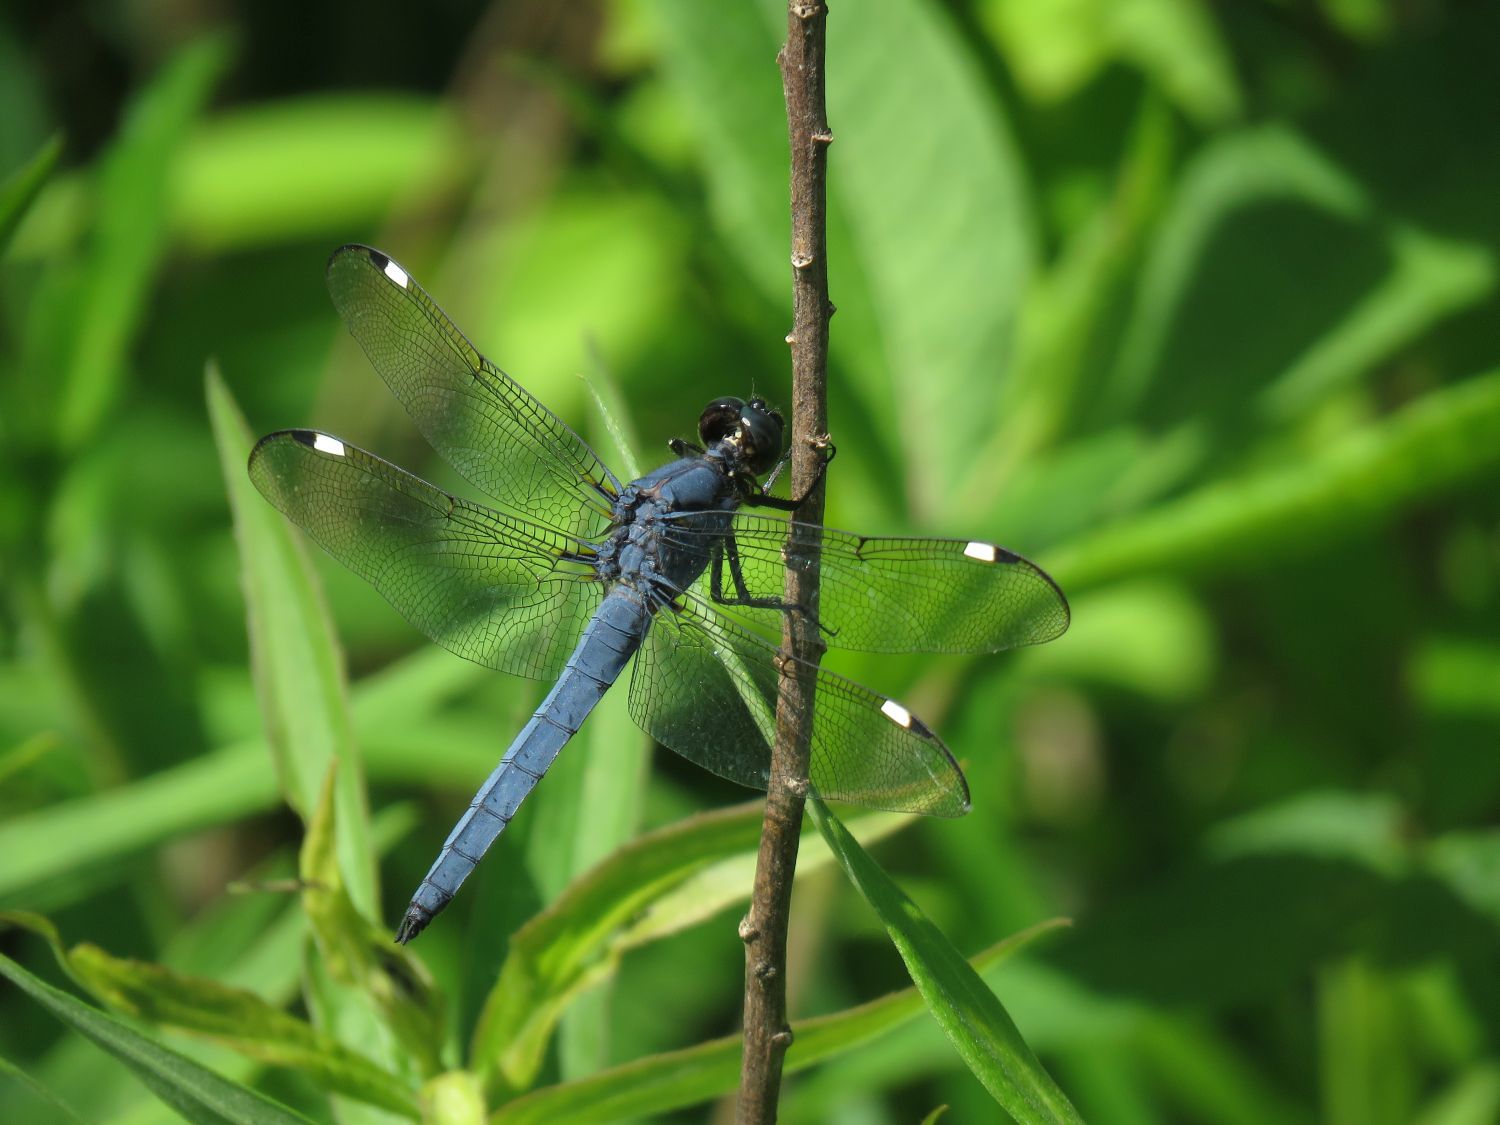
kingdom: Animalia
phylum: Arthropoda
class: Insecta
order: Odonata
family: Libellulidae
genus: Libellula
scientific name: Libellula cyanea
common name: Spangled skimmer
